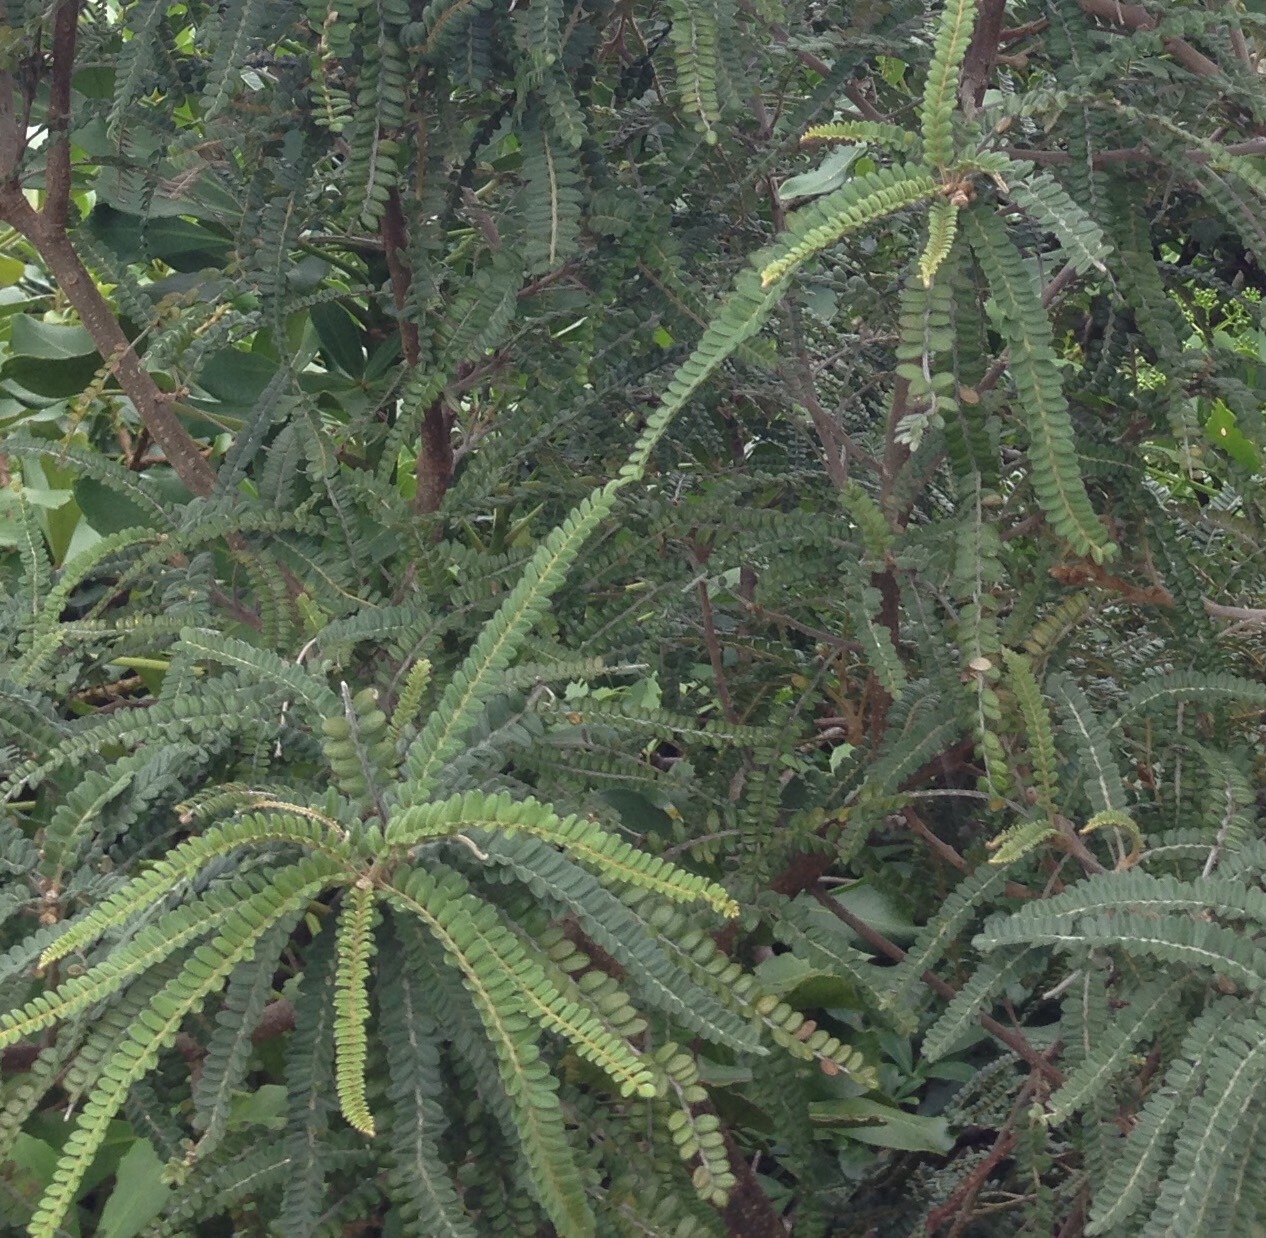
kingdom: Plantae
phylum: Tracheophyta
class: Magnoliopsida
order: Fabales
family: Fabaceae
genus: Sophora
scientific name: Sophora fulvida
